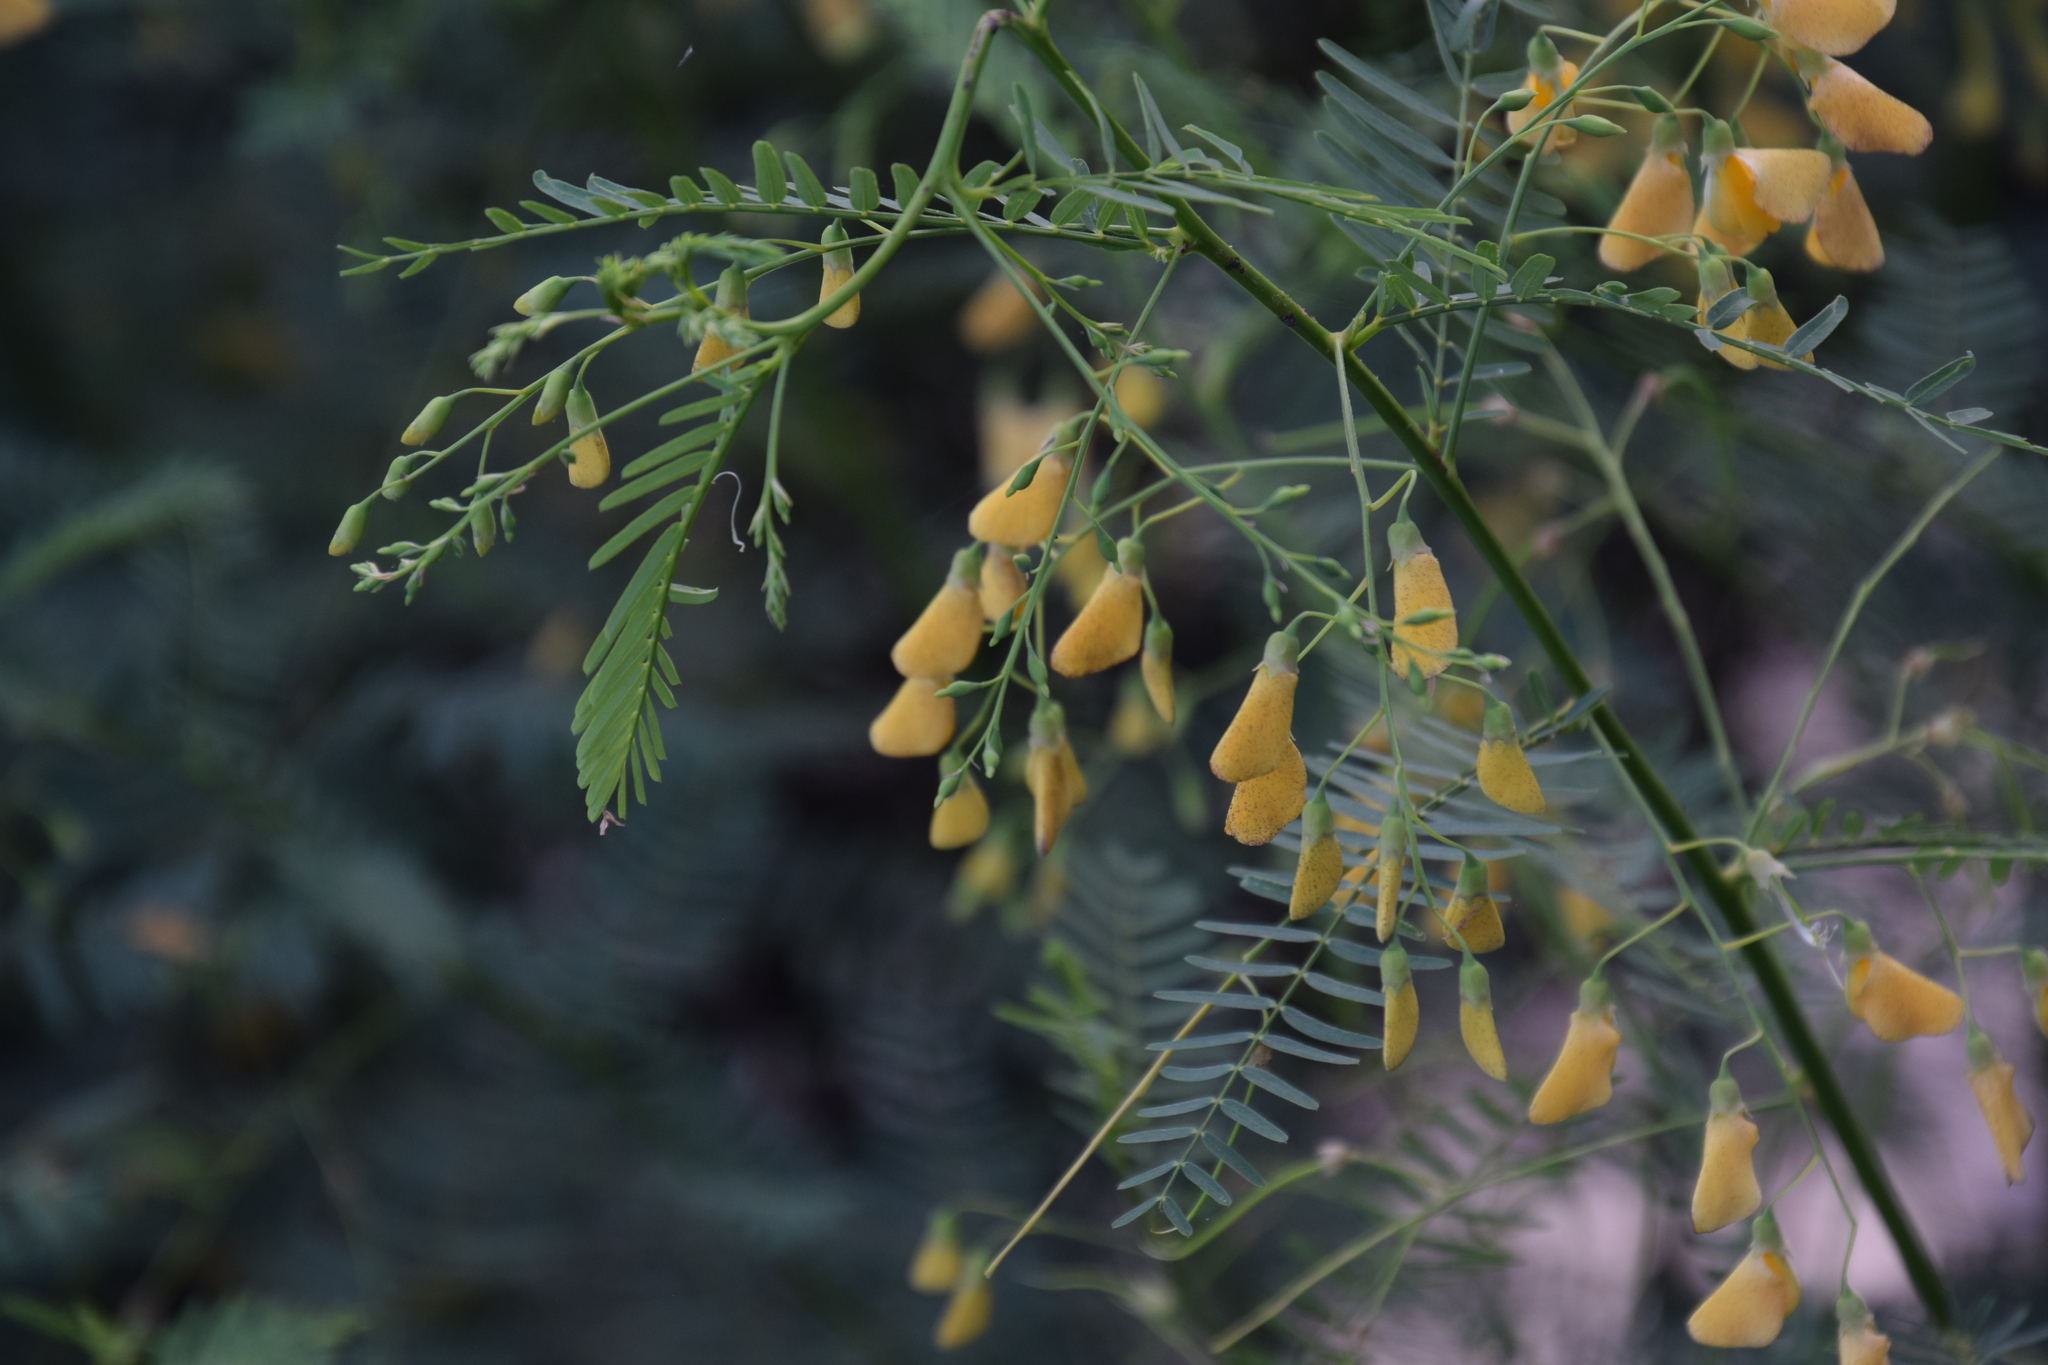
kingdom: Plantae
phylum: Tracheophyta
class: Magnoliopsida
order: Fabales
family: Fabaceae
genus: Sesbania
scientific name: Sesbania cannabina
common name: Canicha
